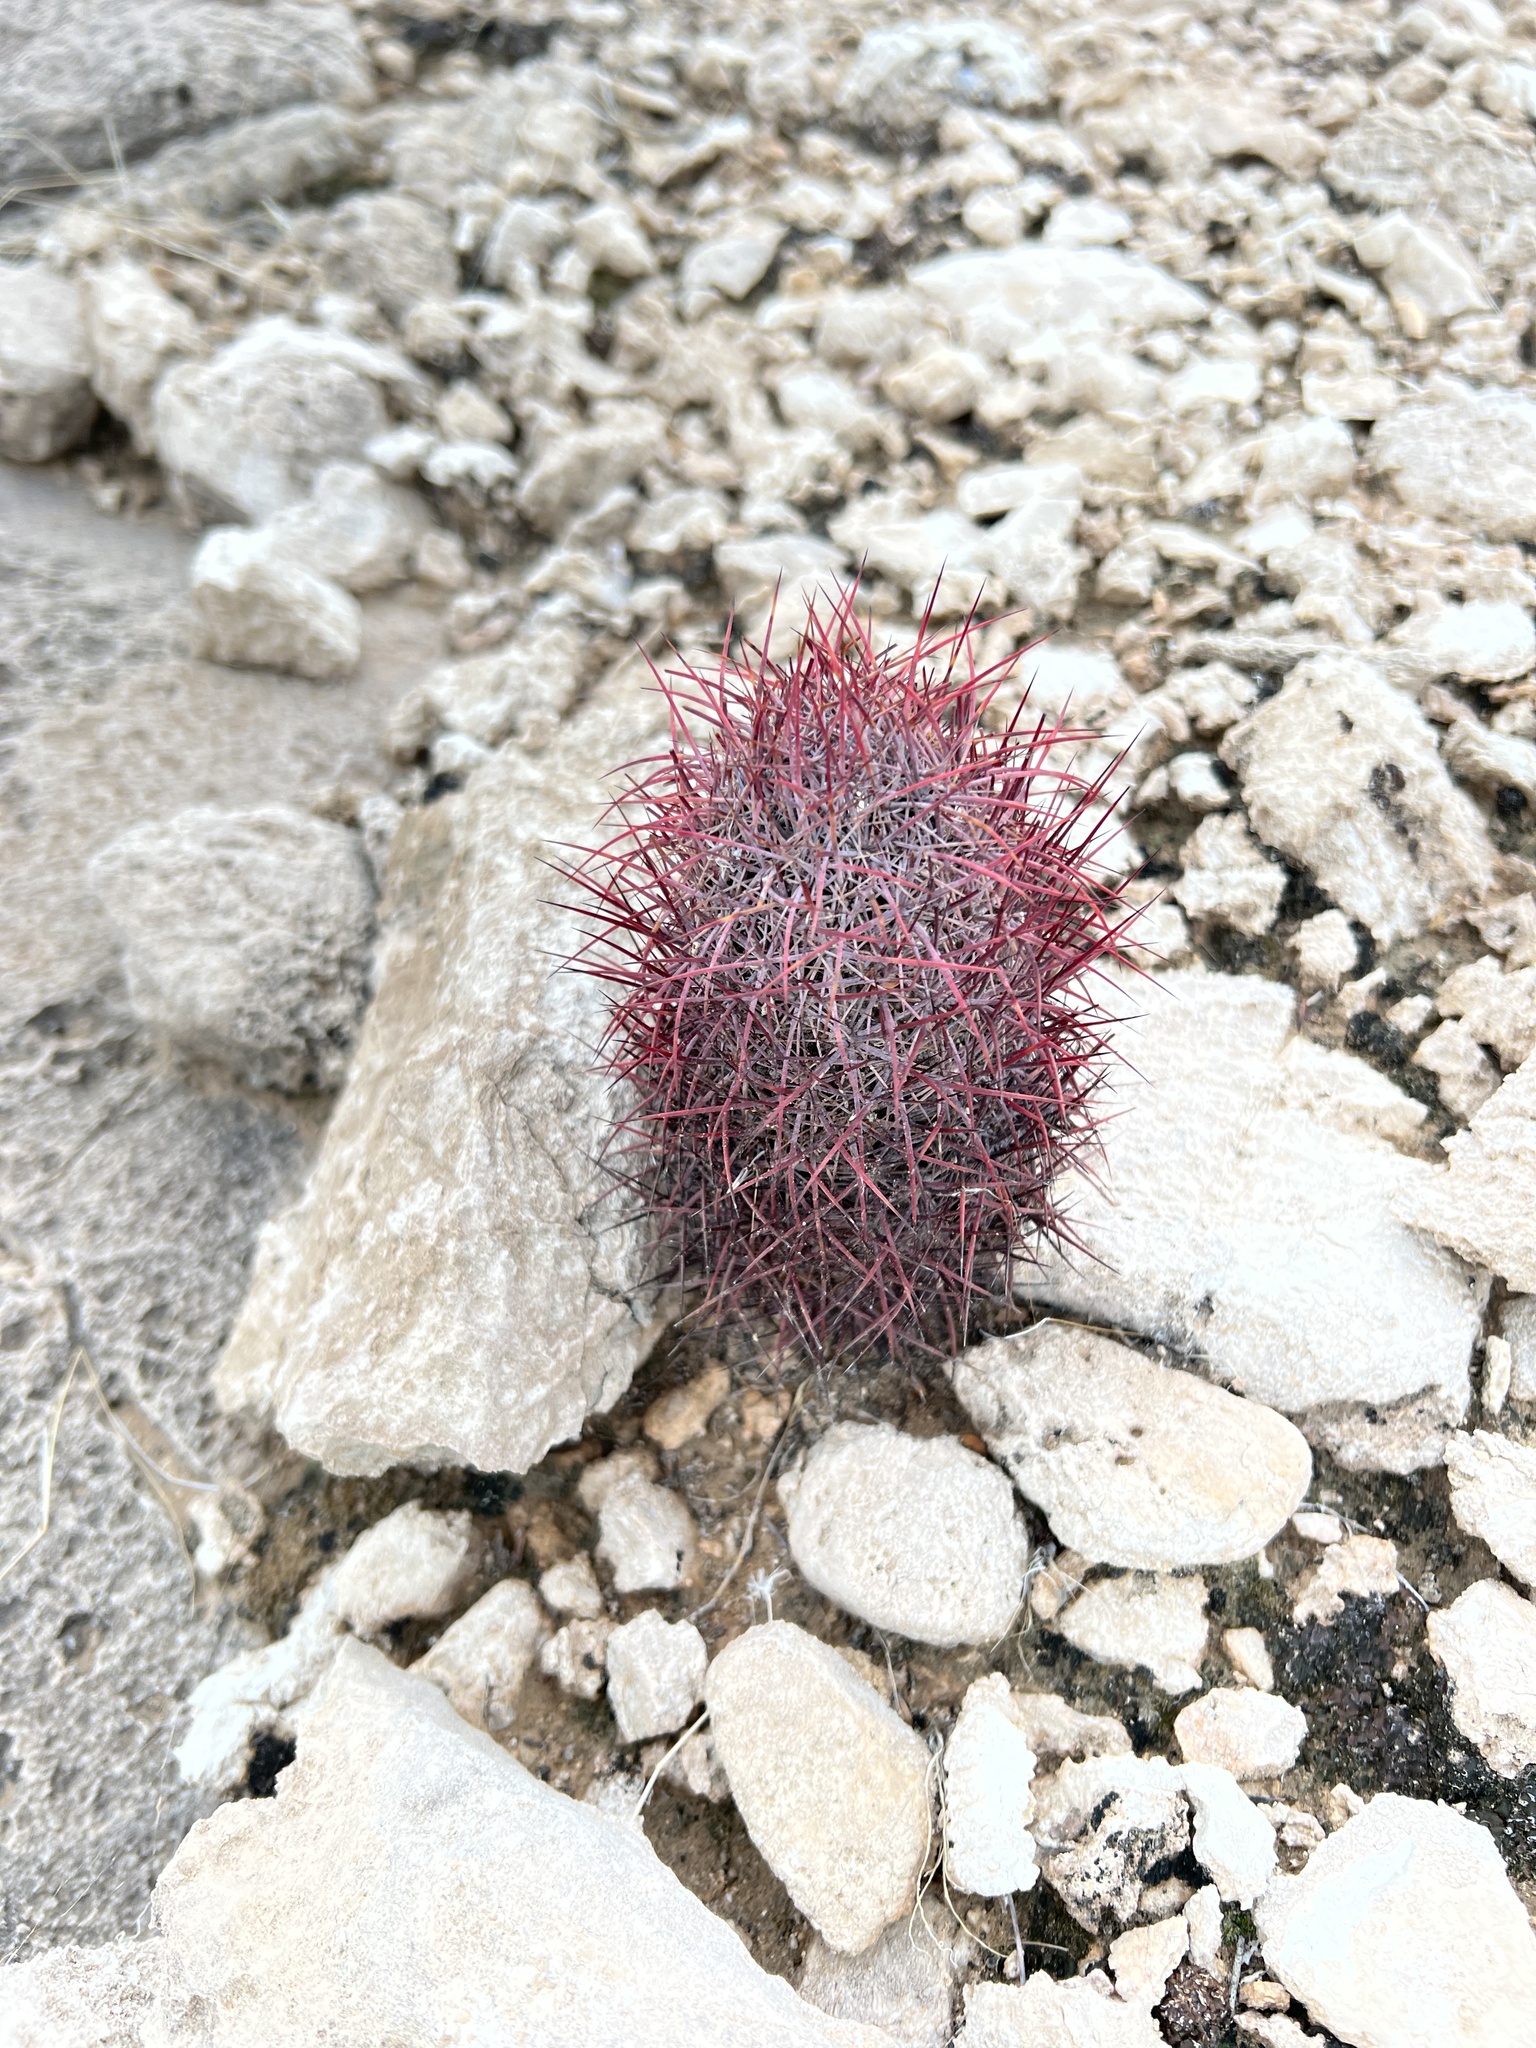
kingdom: Plantae
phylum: Tracheophyta
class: Magnoliopsida
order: Caryophyllales
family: Cactaceae
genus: Sclerocactus
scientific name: Sclerocactus johnsonii
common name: Eight-spine fishhook cactus
